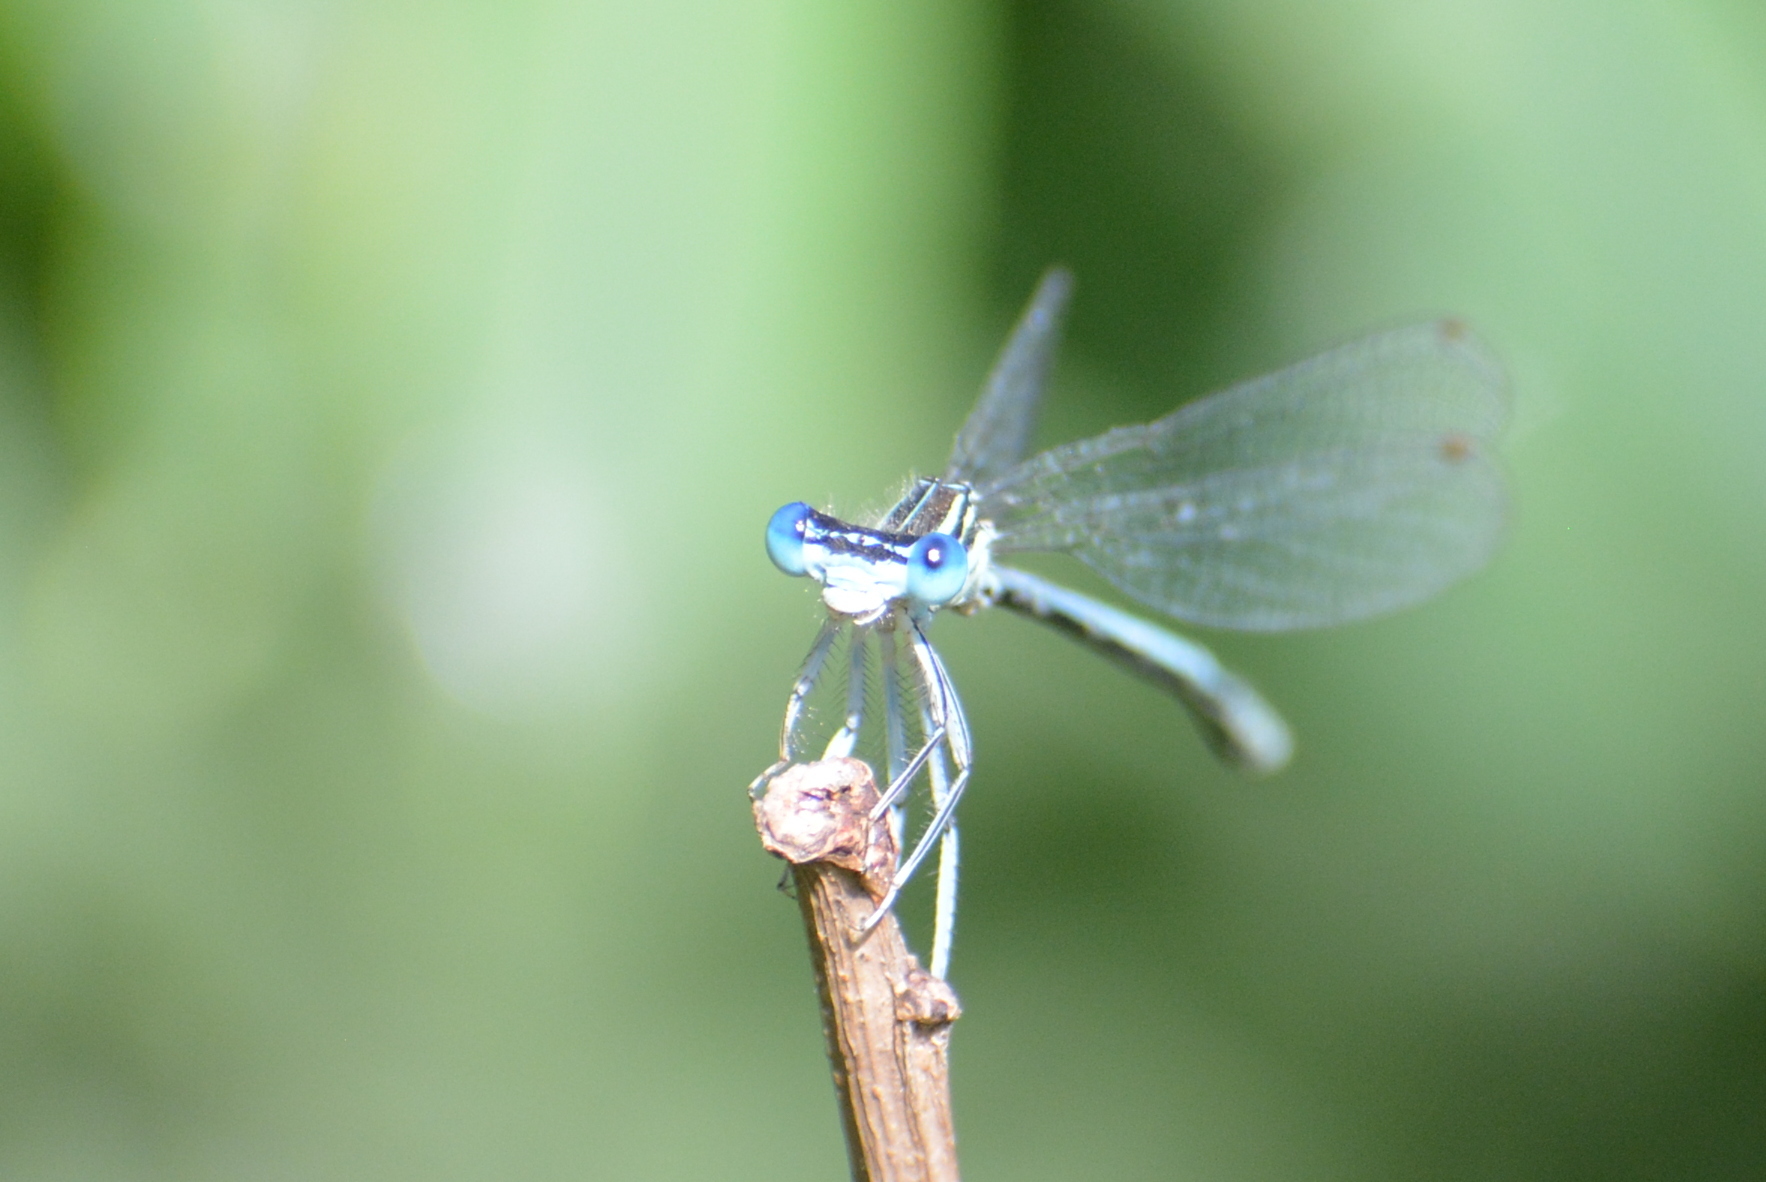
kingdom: Animalia
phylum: Arthropoda
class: Insecta
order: Odonata
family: Platycnemididae
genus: Platycnemis
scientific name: Platycnemis pennipes
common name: White-legged damselfly
